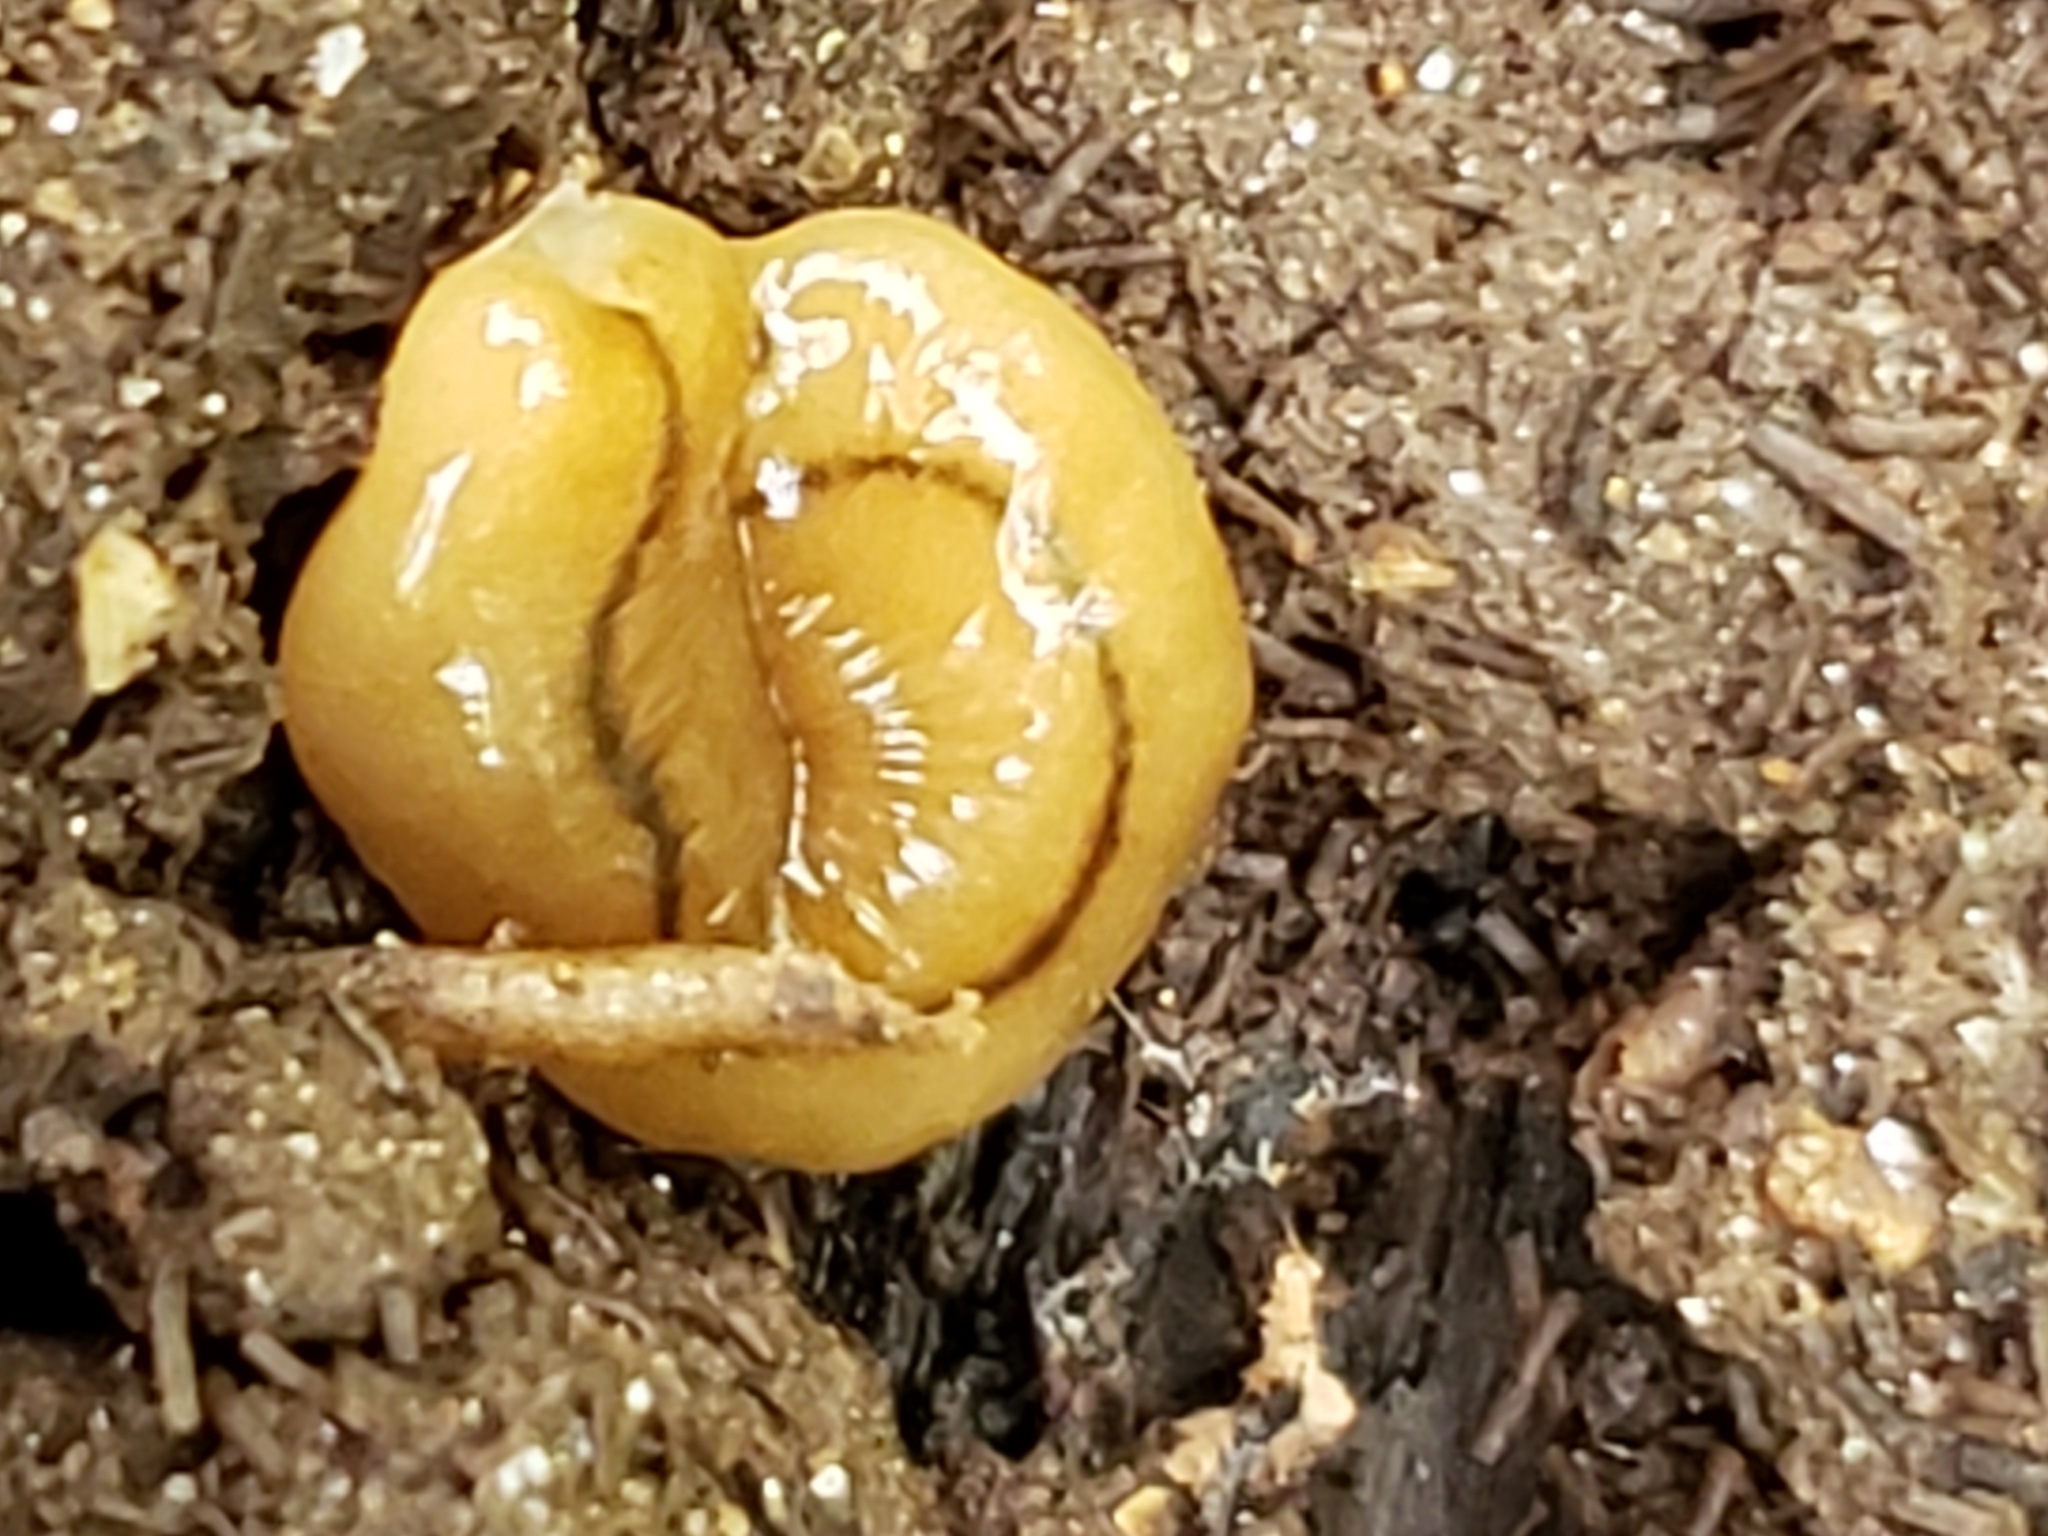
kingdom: Animalia
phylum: Platyhelminthes
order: Tricladida
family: Geoplanidae
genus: Bipalium
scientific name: Bipalium adventitium
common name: Land planarian
